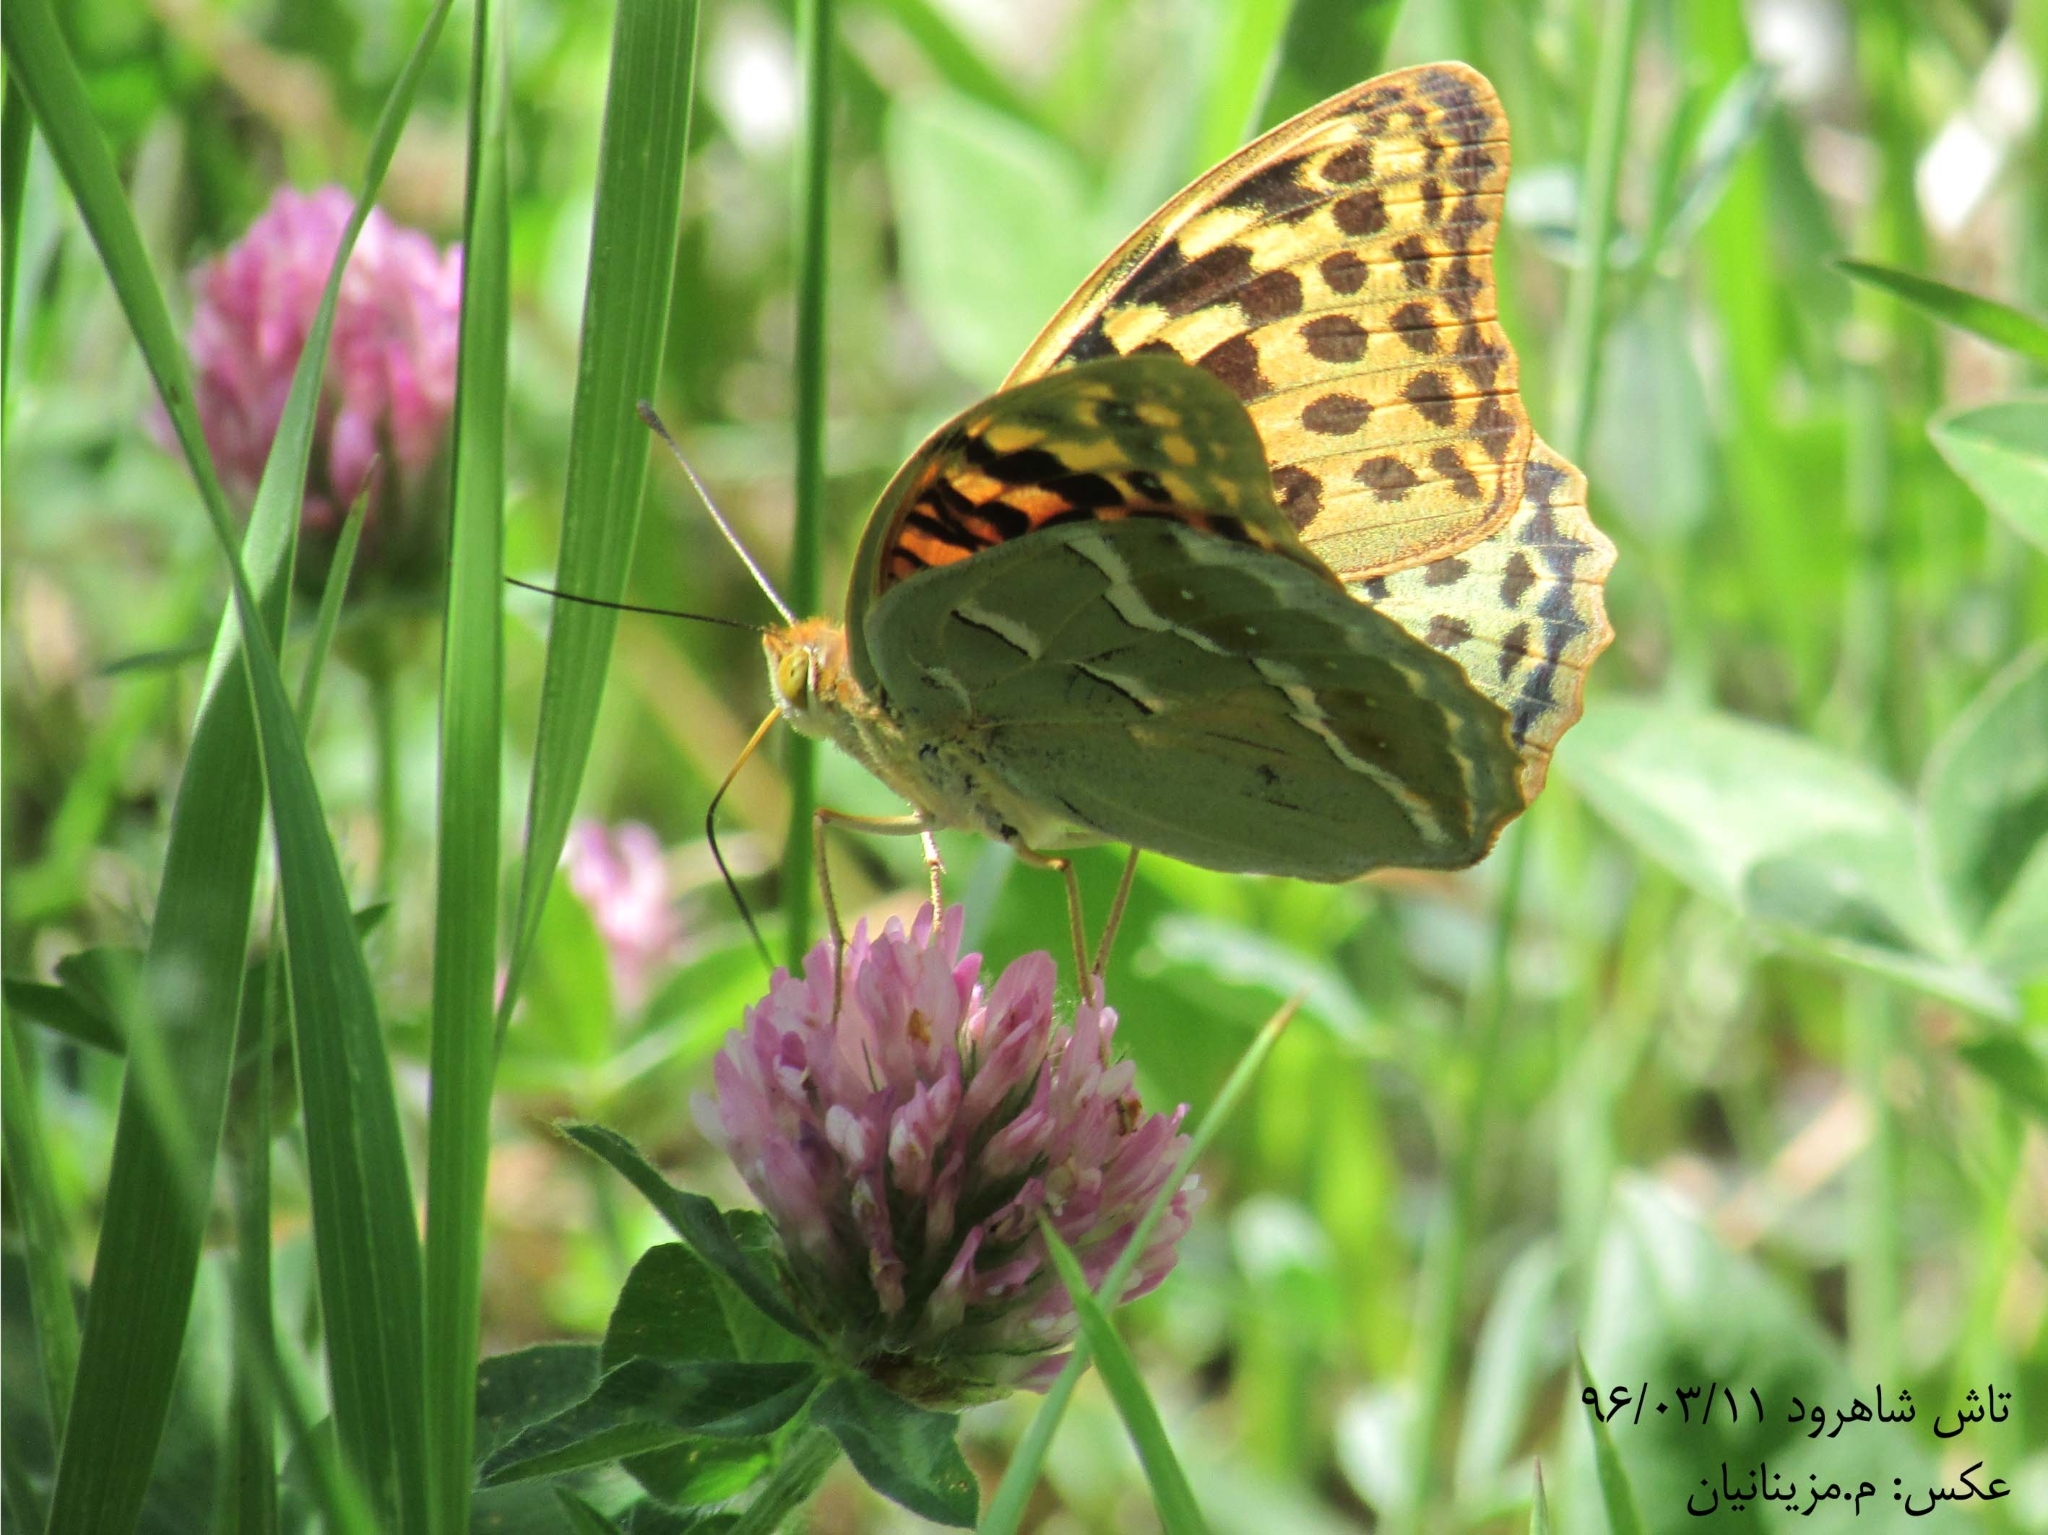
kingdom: Animalia
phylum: Arthropoda
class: Insecta
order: Lepidoptera
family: Nymphalidae
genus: Damora
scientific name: Damora pandora
